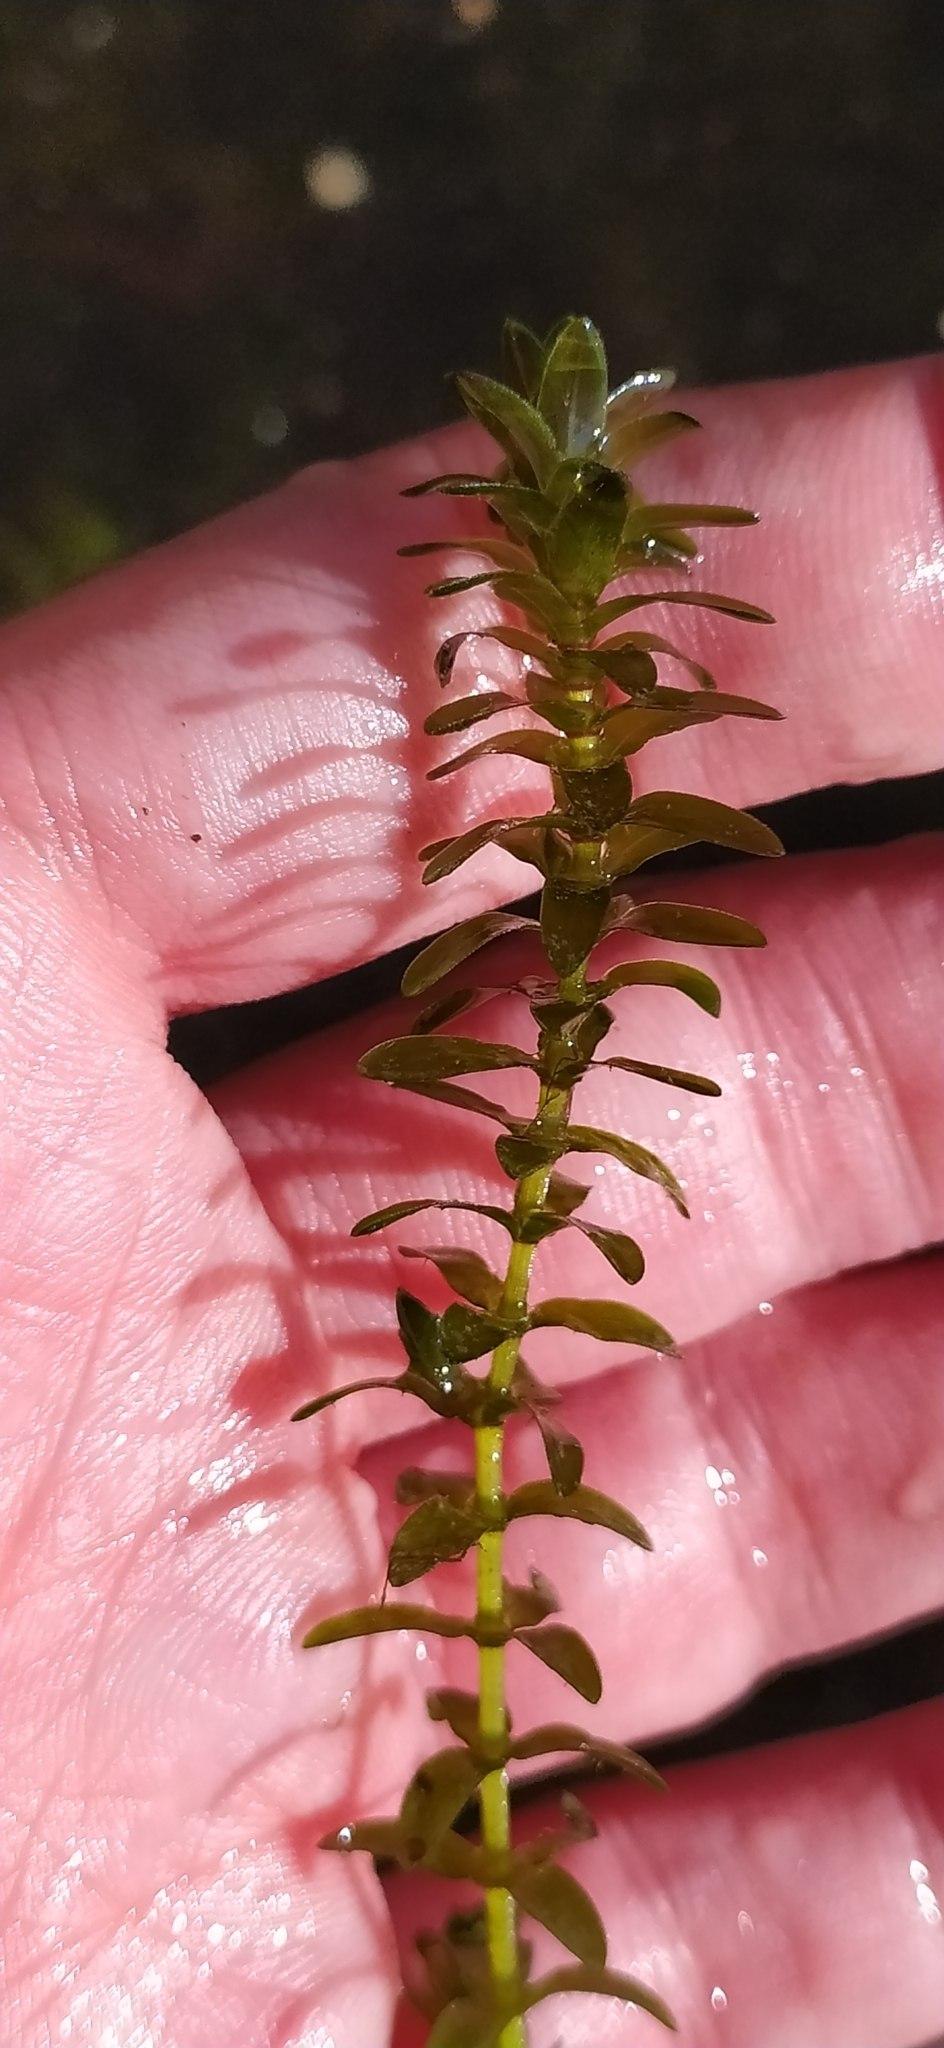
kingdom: Plantae
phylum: Tracheophyta
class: Liliopsida
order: Alismatales
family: Hydrocharitaceae
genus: Elodea
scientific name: Elodea canadensis
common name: Canadian waterweed
